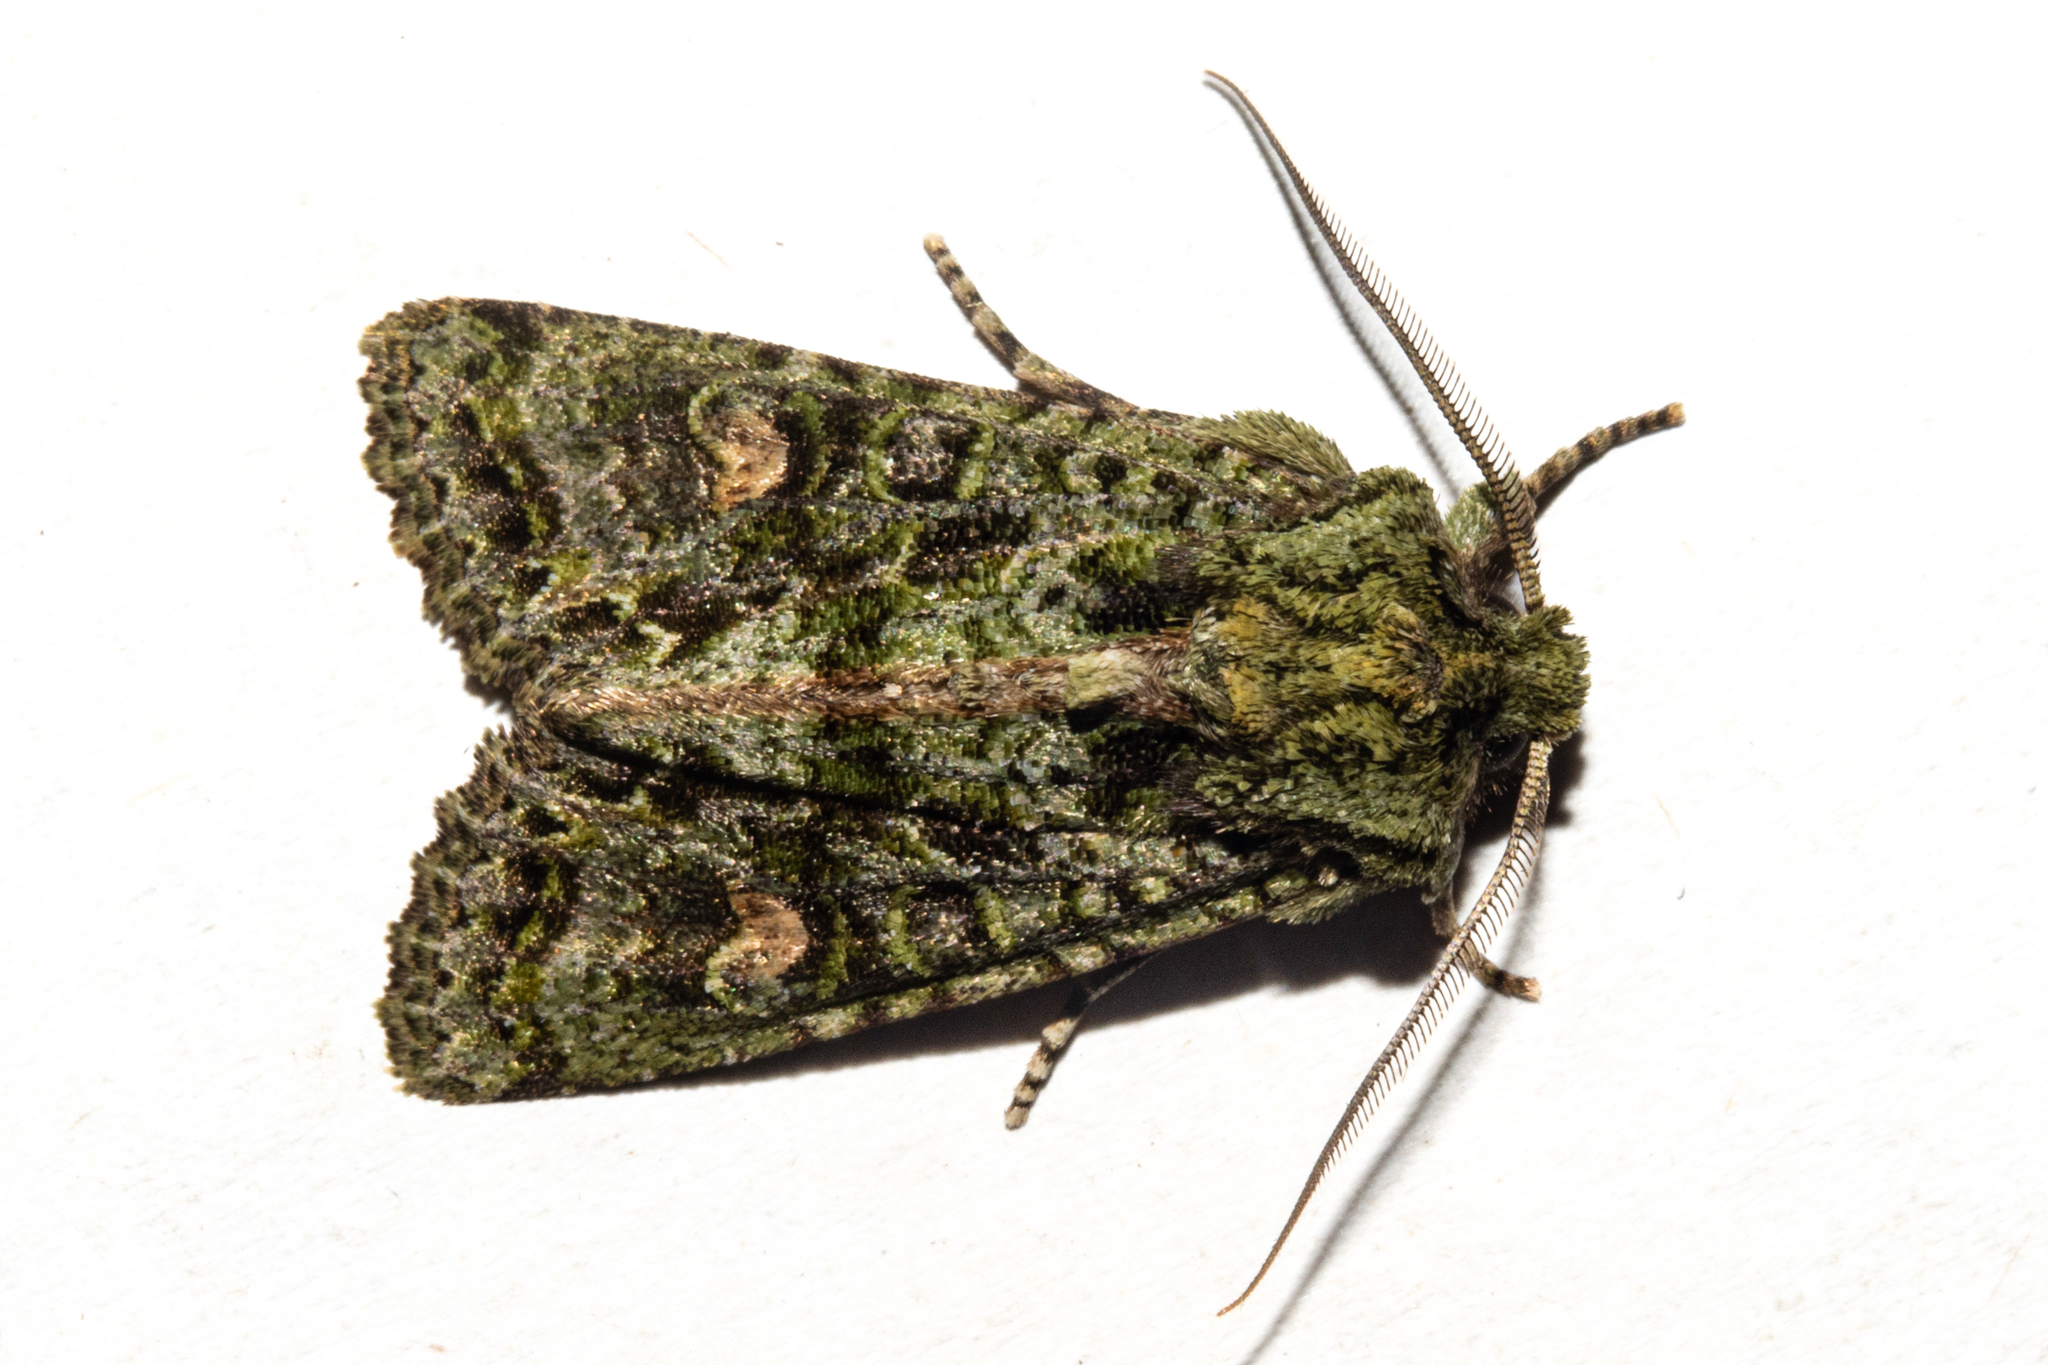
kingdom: Animalia
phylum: Arthropoda
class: Insecta
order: Lepidoptera
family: Noctuidae
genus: Ichneutica
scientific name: Ichneutica
